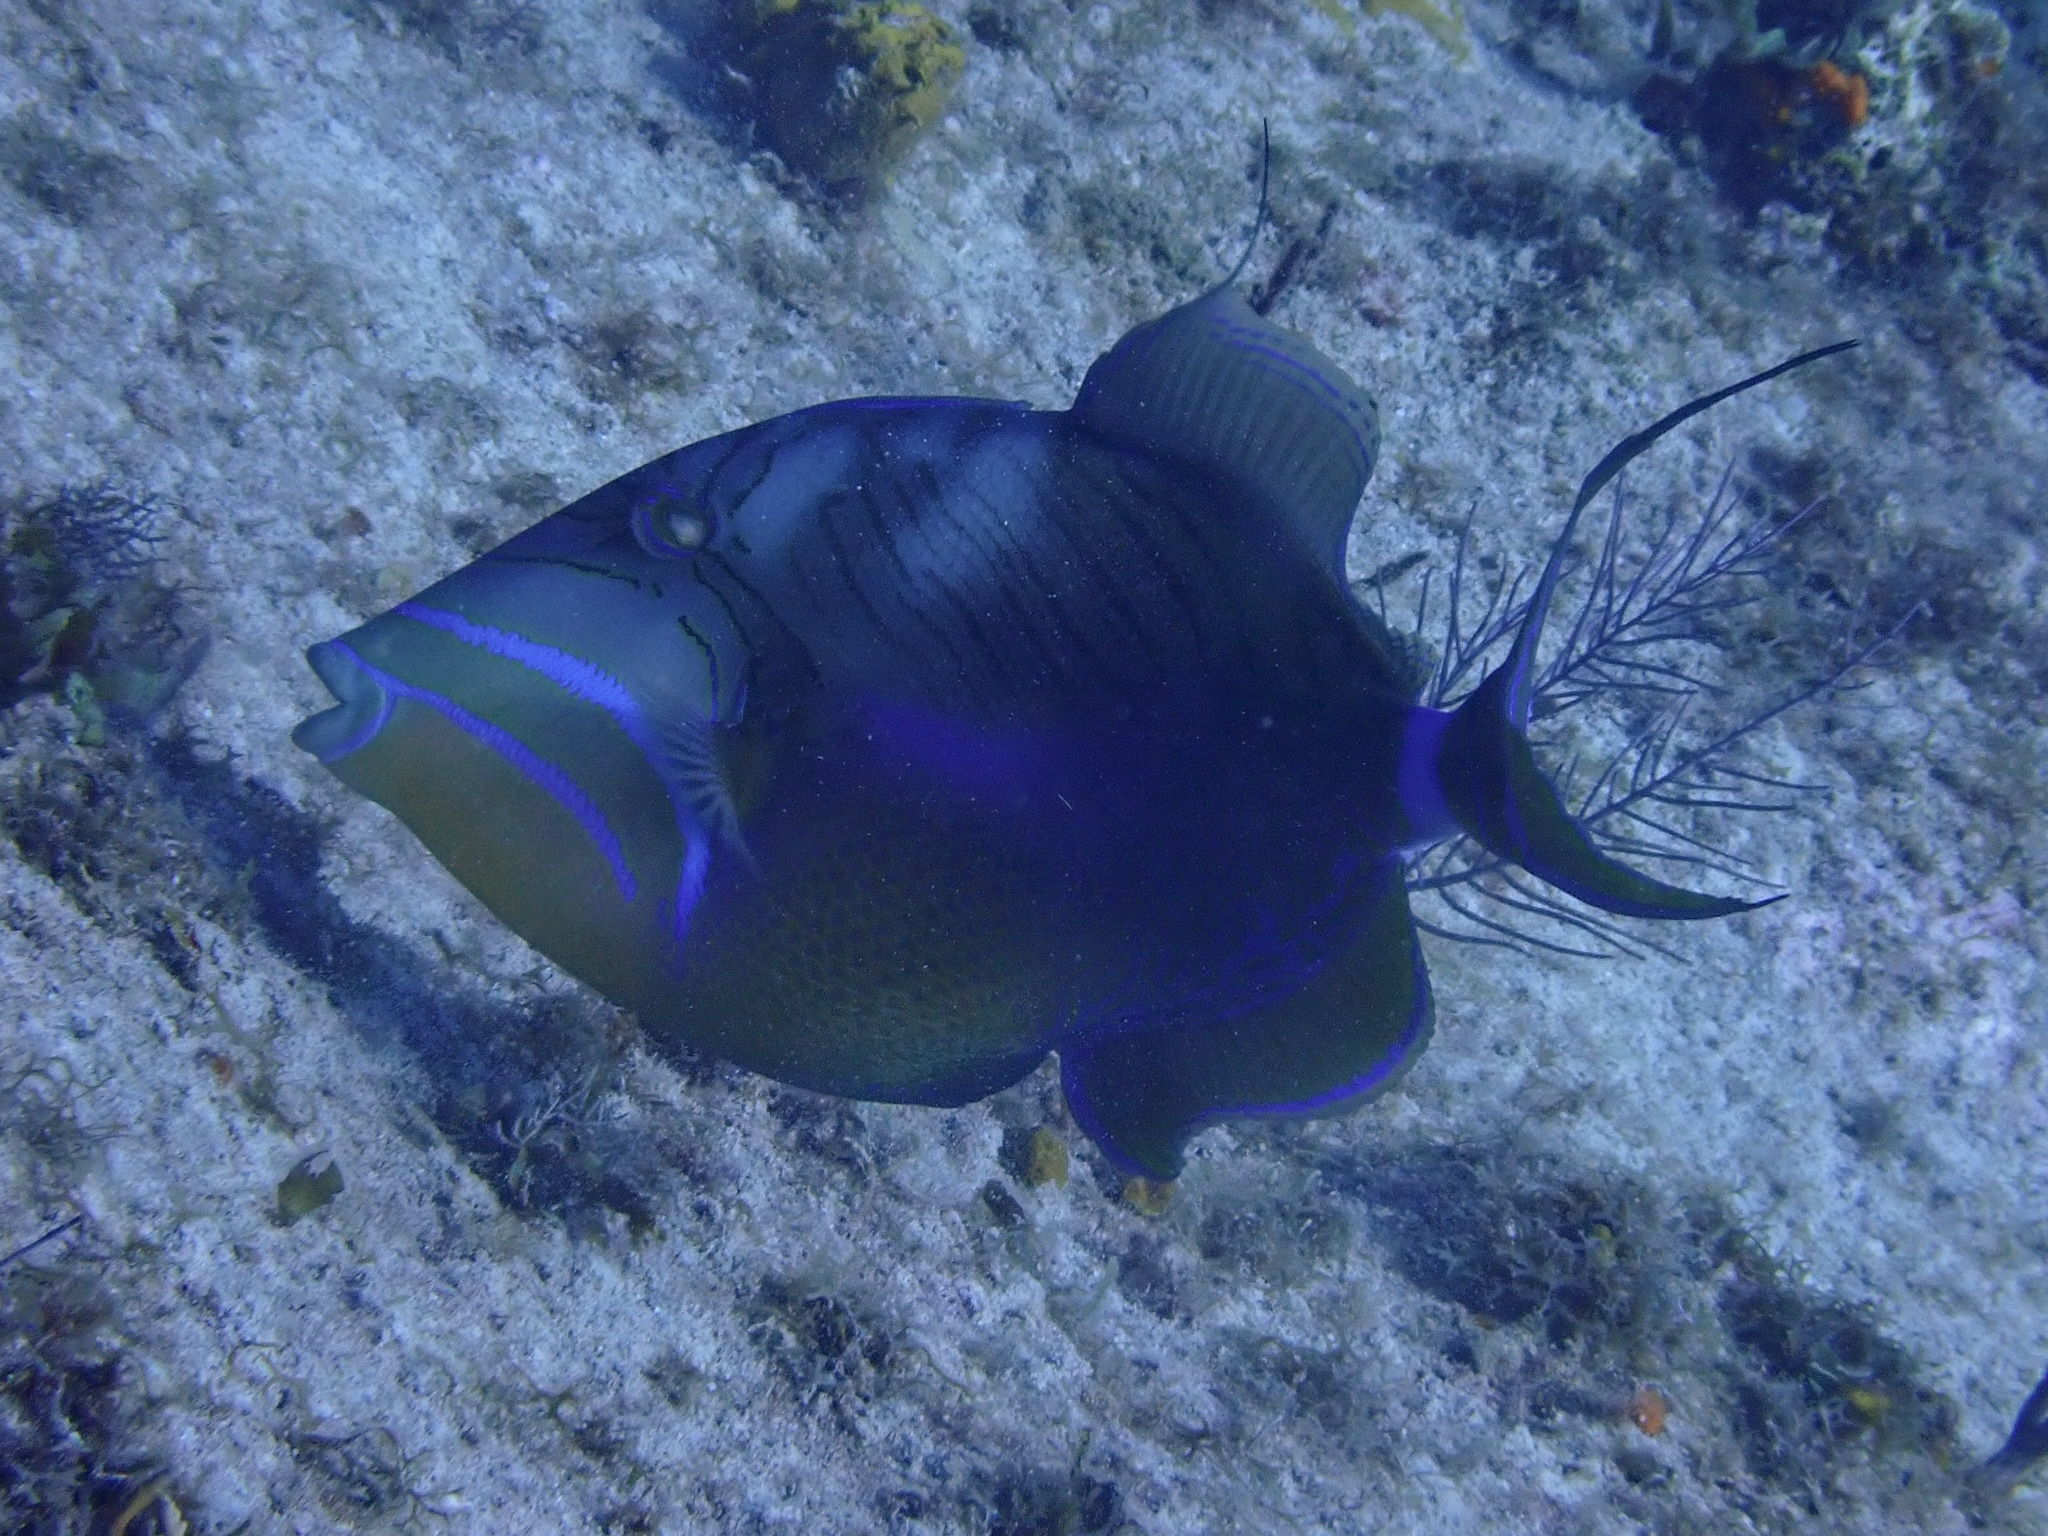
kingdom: Animalia
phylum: Chordata
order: Tetraodontiformes
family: Balistidae
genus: Balistes
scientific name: Balistes vetula
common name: Queen triggerfish
